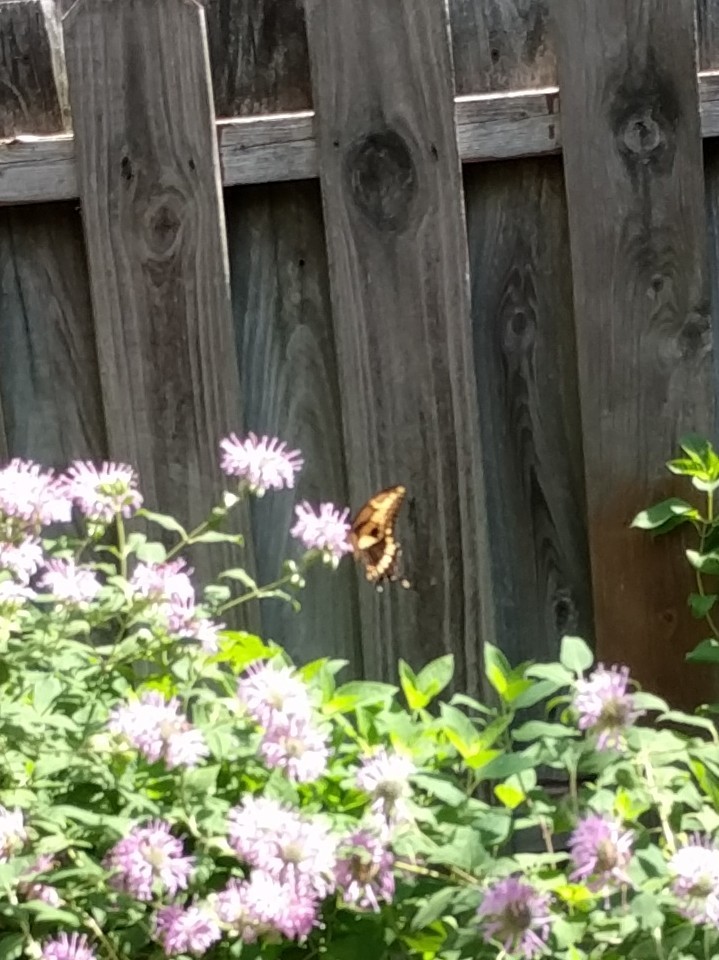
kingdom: Animalia
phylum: Arthropoda
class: Insecta
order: Lepidoptera
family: Papilionidae
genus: Papilio
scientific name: Papilio cresphontes
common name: Giant swallowtail
